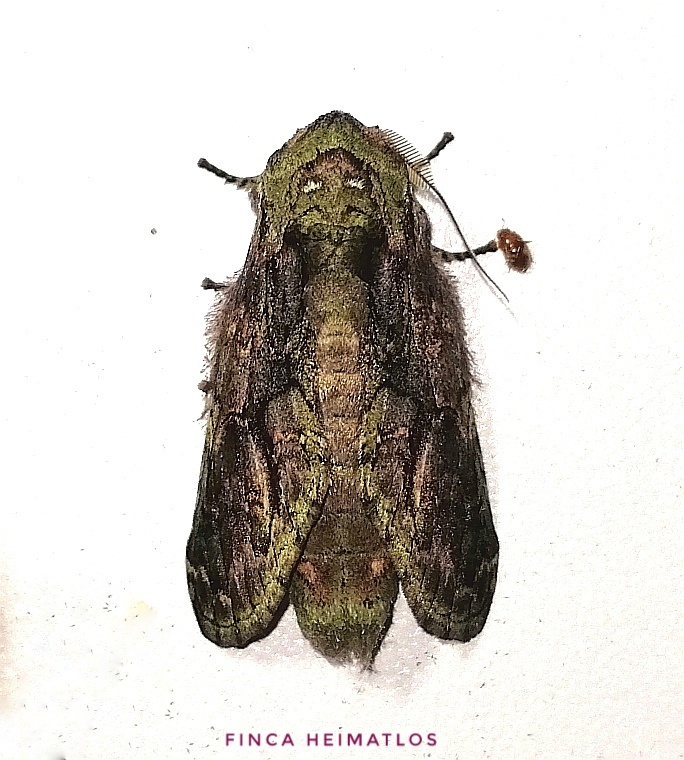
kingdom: Animalia
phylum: Arthropoda
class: Insecta
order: Lepidoptera
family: Notodontidae
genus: Heterocampa
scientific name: Heterocampa
